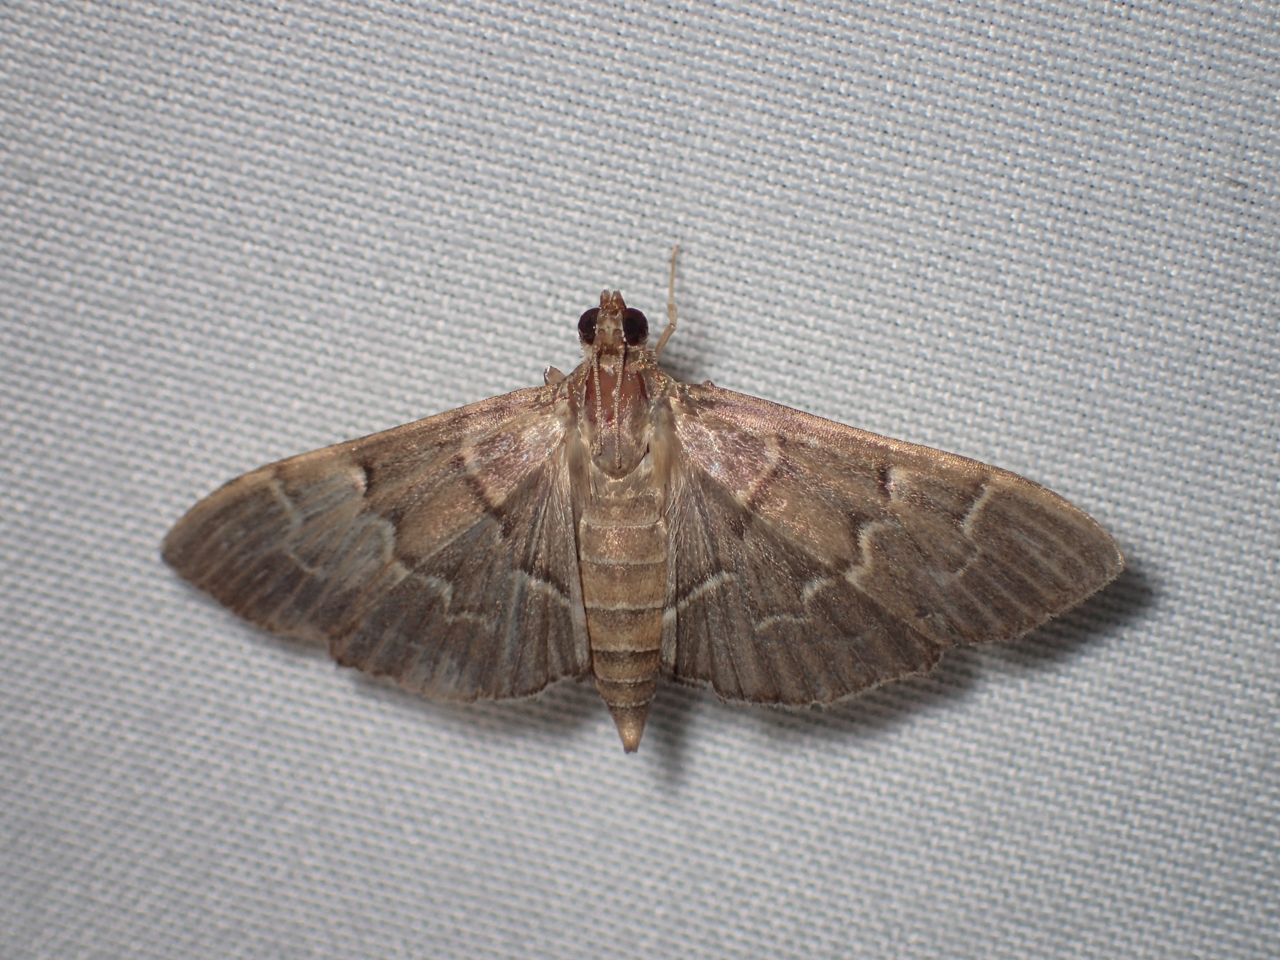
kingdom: Animalia
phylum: Arthropoda
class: Insecta
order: Lepidoptera
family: Crambidae
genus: Pilocrocis
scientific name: Pilocrocis ramentalis
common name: Scraped pilocrocis
